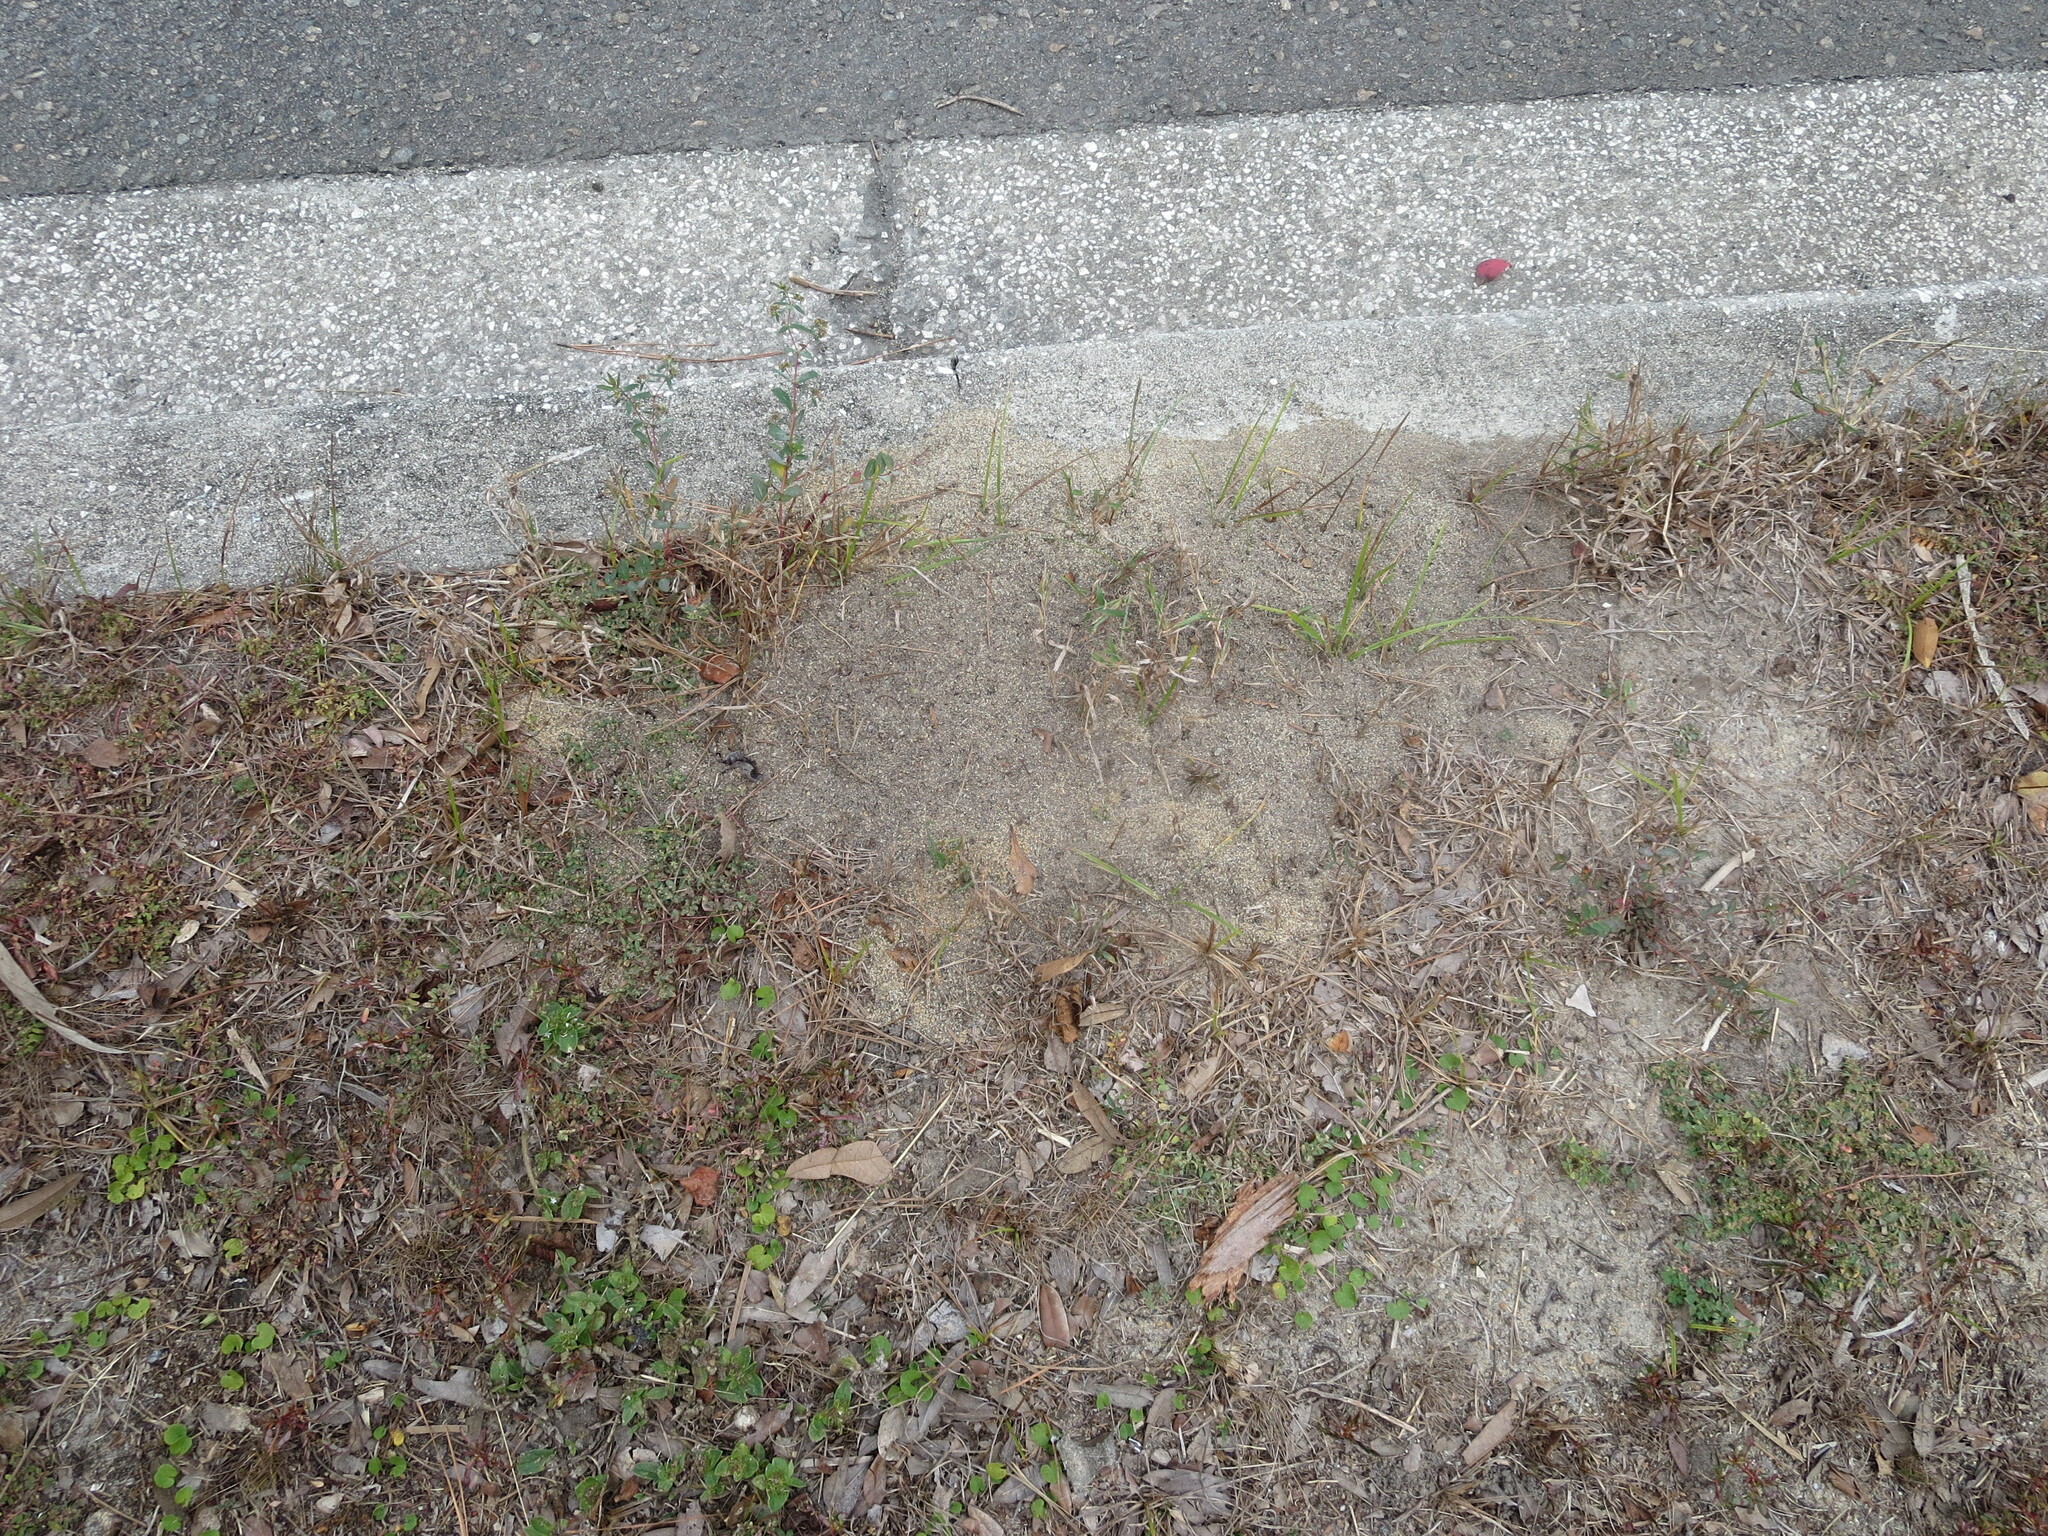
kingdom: Animalia
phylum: Arthropoda
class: Insecta
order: Hymenoptera
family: Formicidae
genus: Solenopsis
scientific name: Solenopsis invicta
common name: Red imported fire ant
